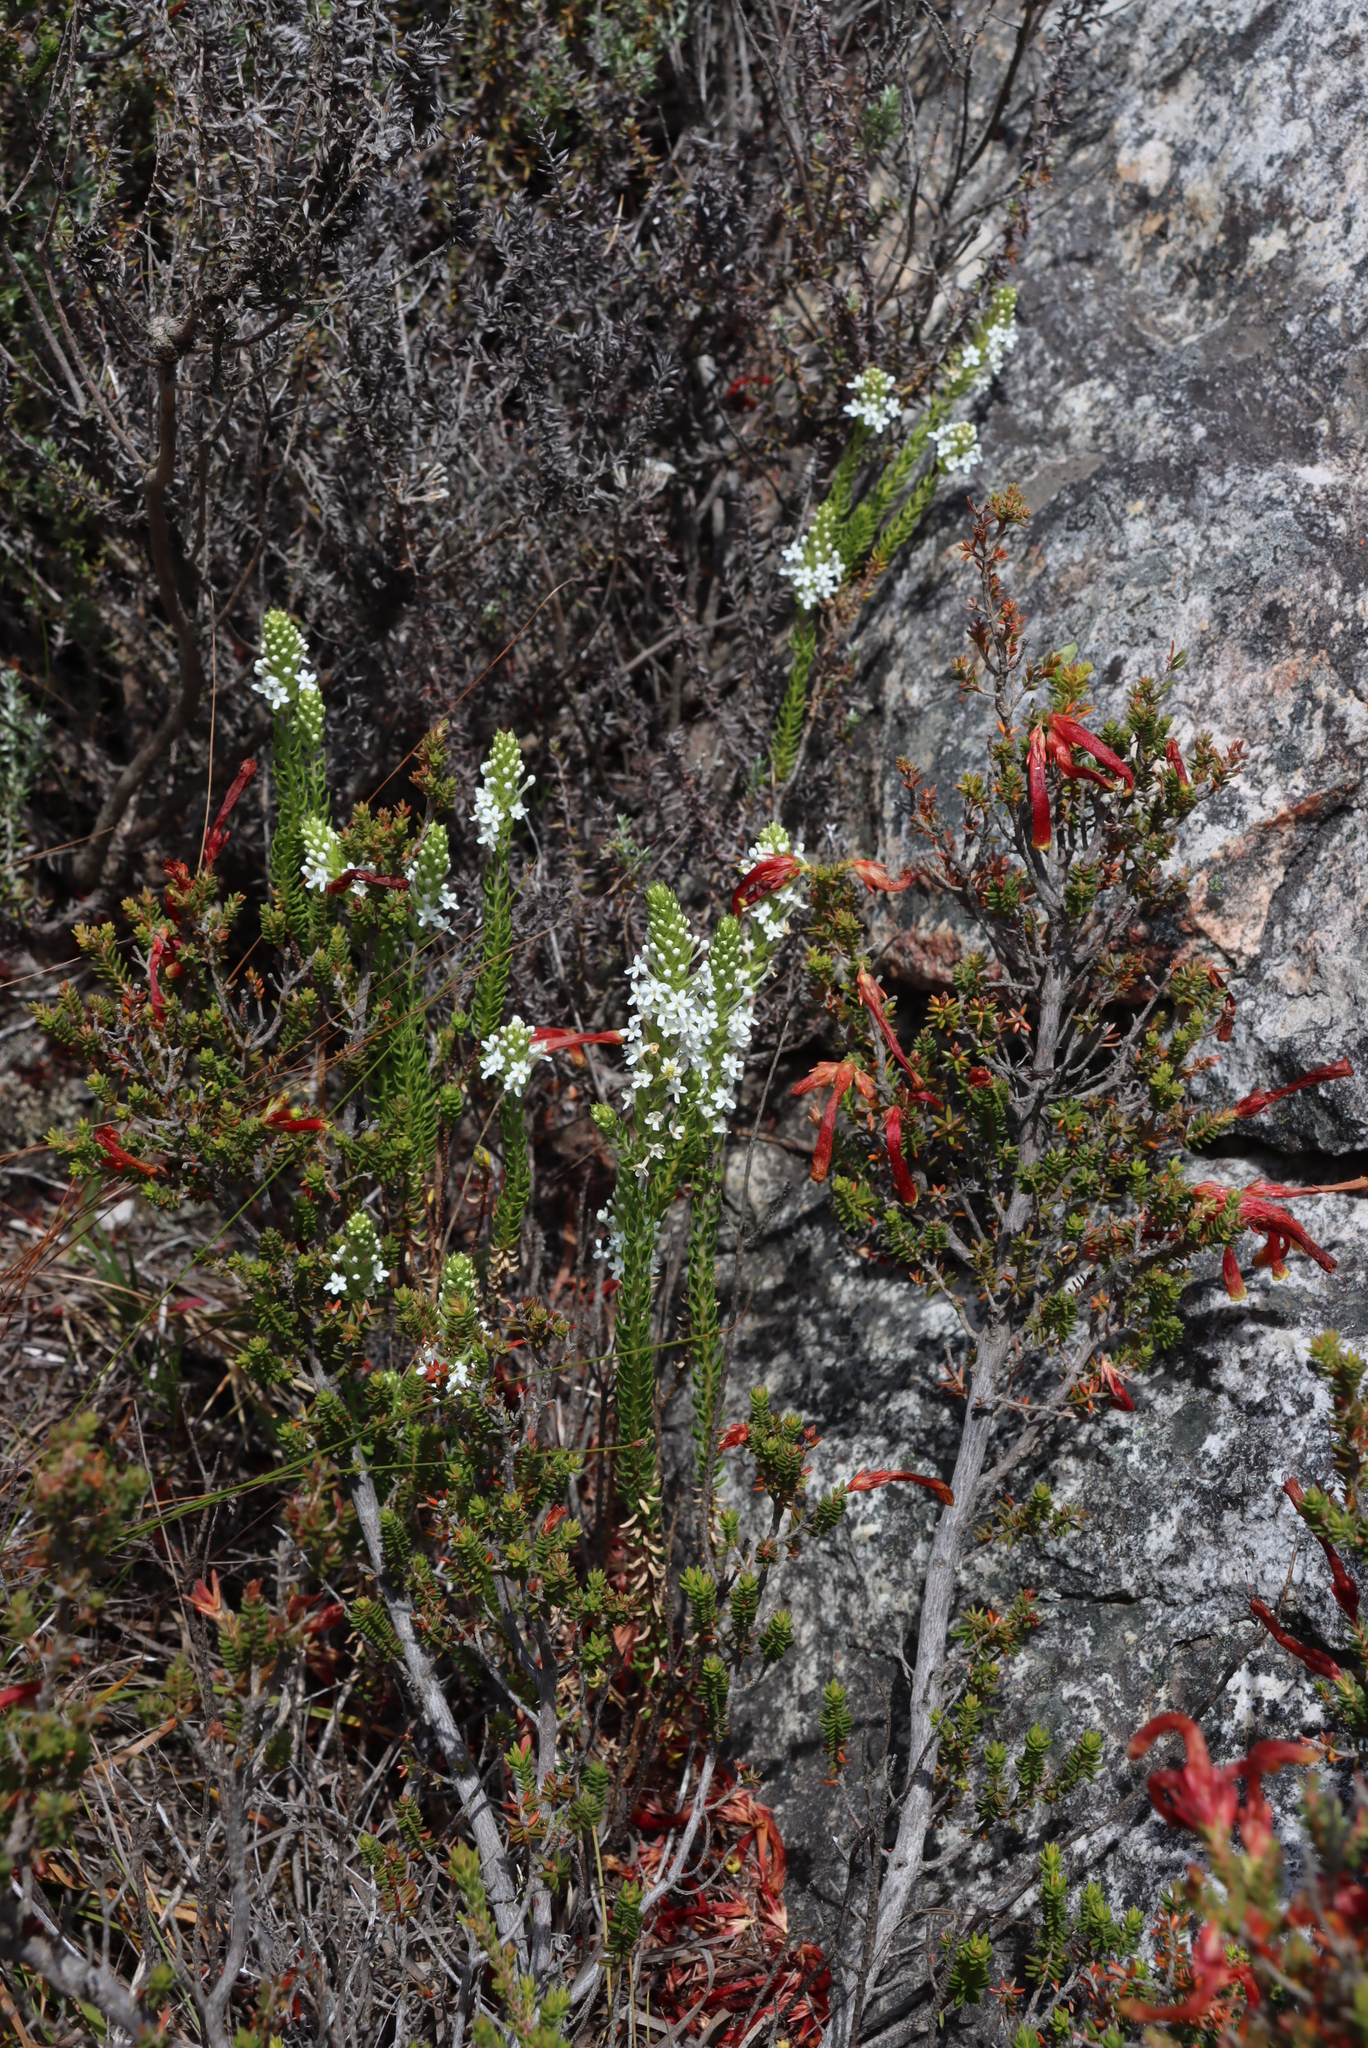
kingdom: Plantae
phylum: Tracheophyta
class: Magnoliopsida
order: Ericales
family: Ericaceae
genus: Erica
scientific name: Erica discolor
